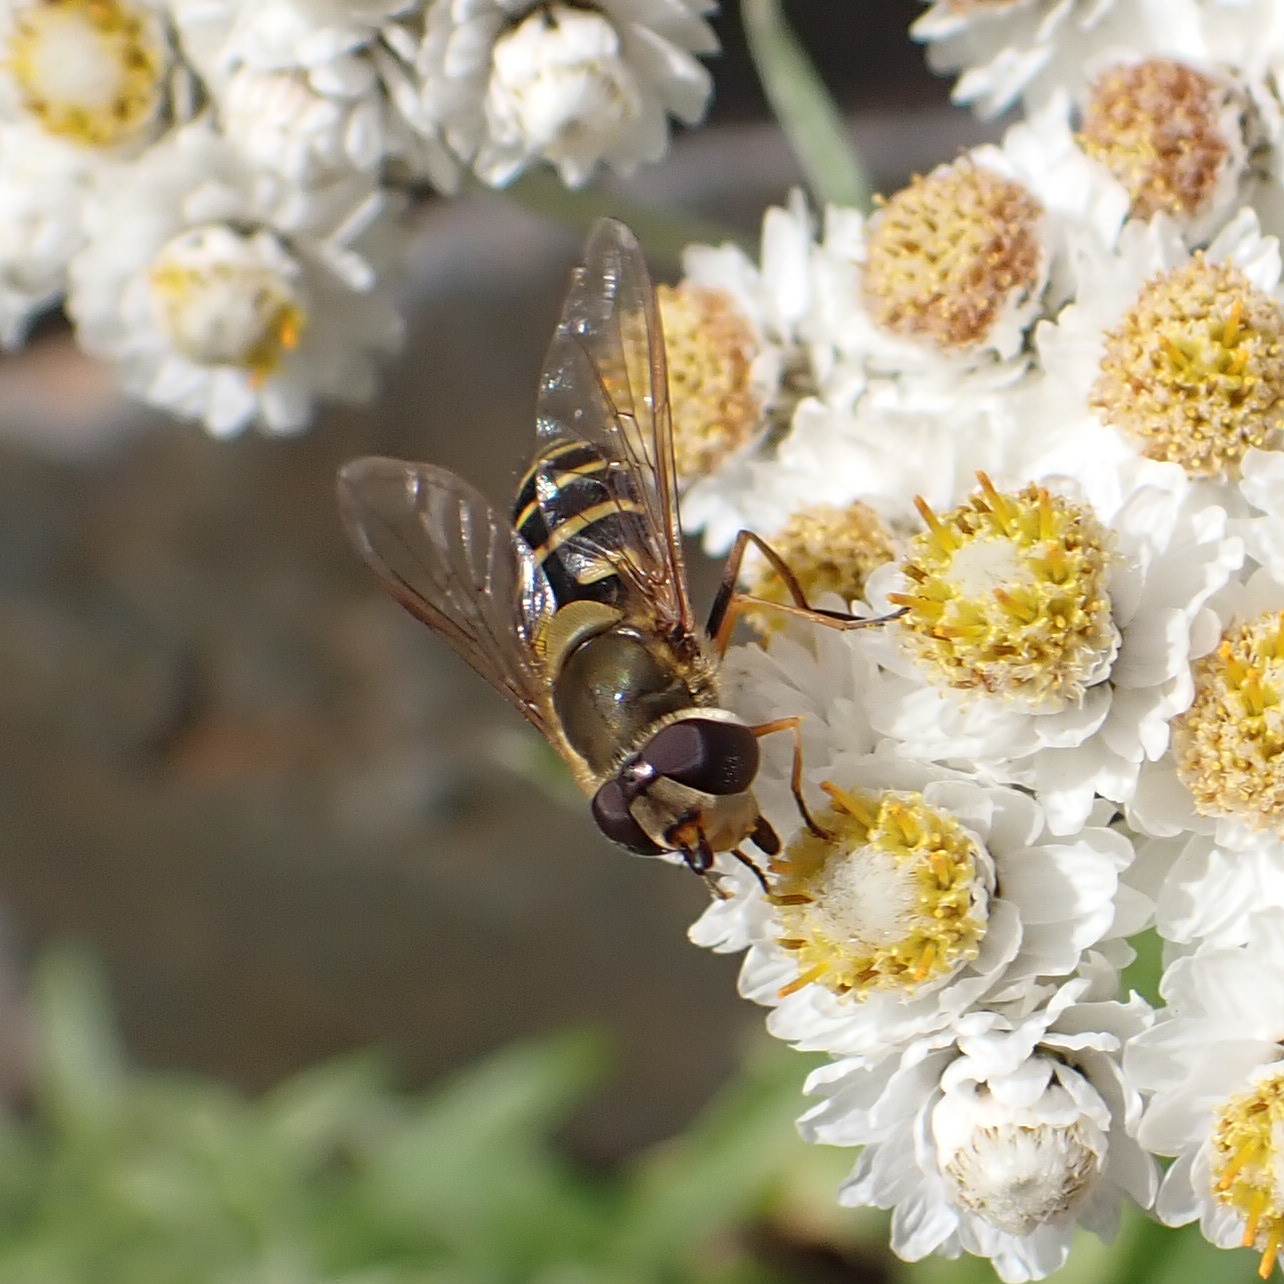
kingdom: Animalia
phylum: Arthropoda
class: Insecta
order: Diptera
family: Syrphidae
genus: Syrphus
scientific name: Syrphus torvus
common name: Hairy-eyed flower fly
